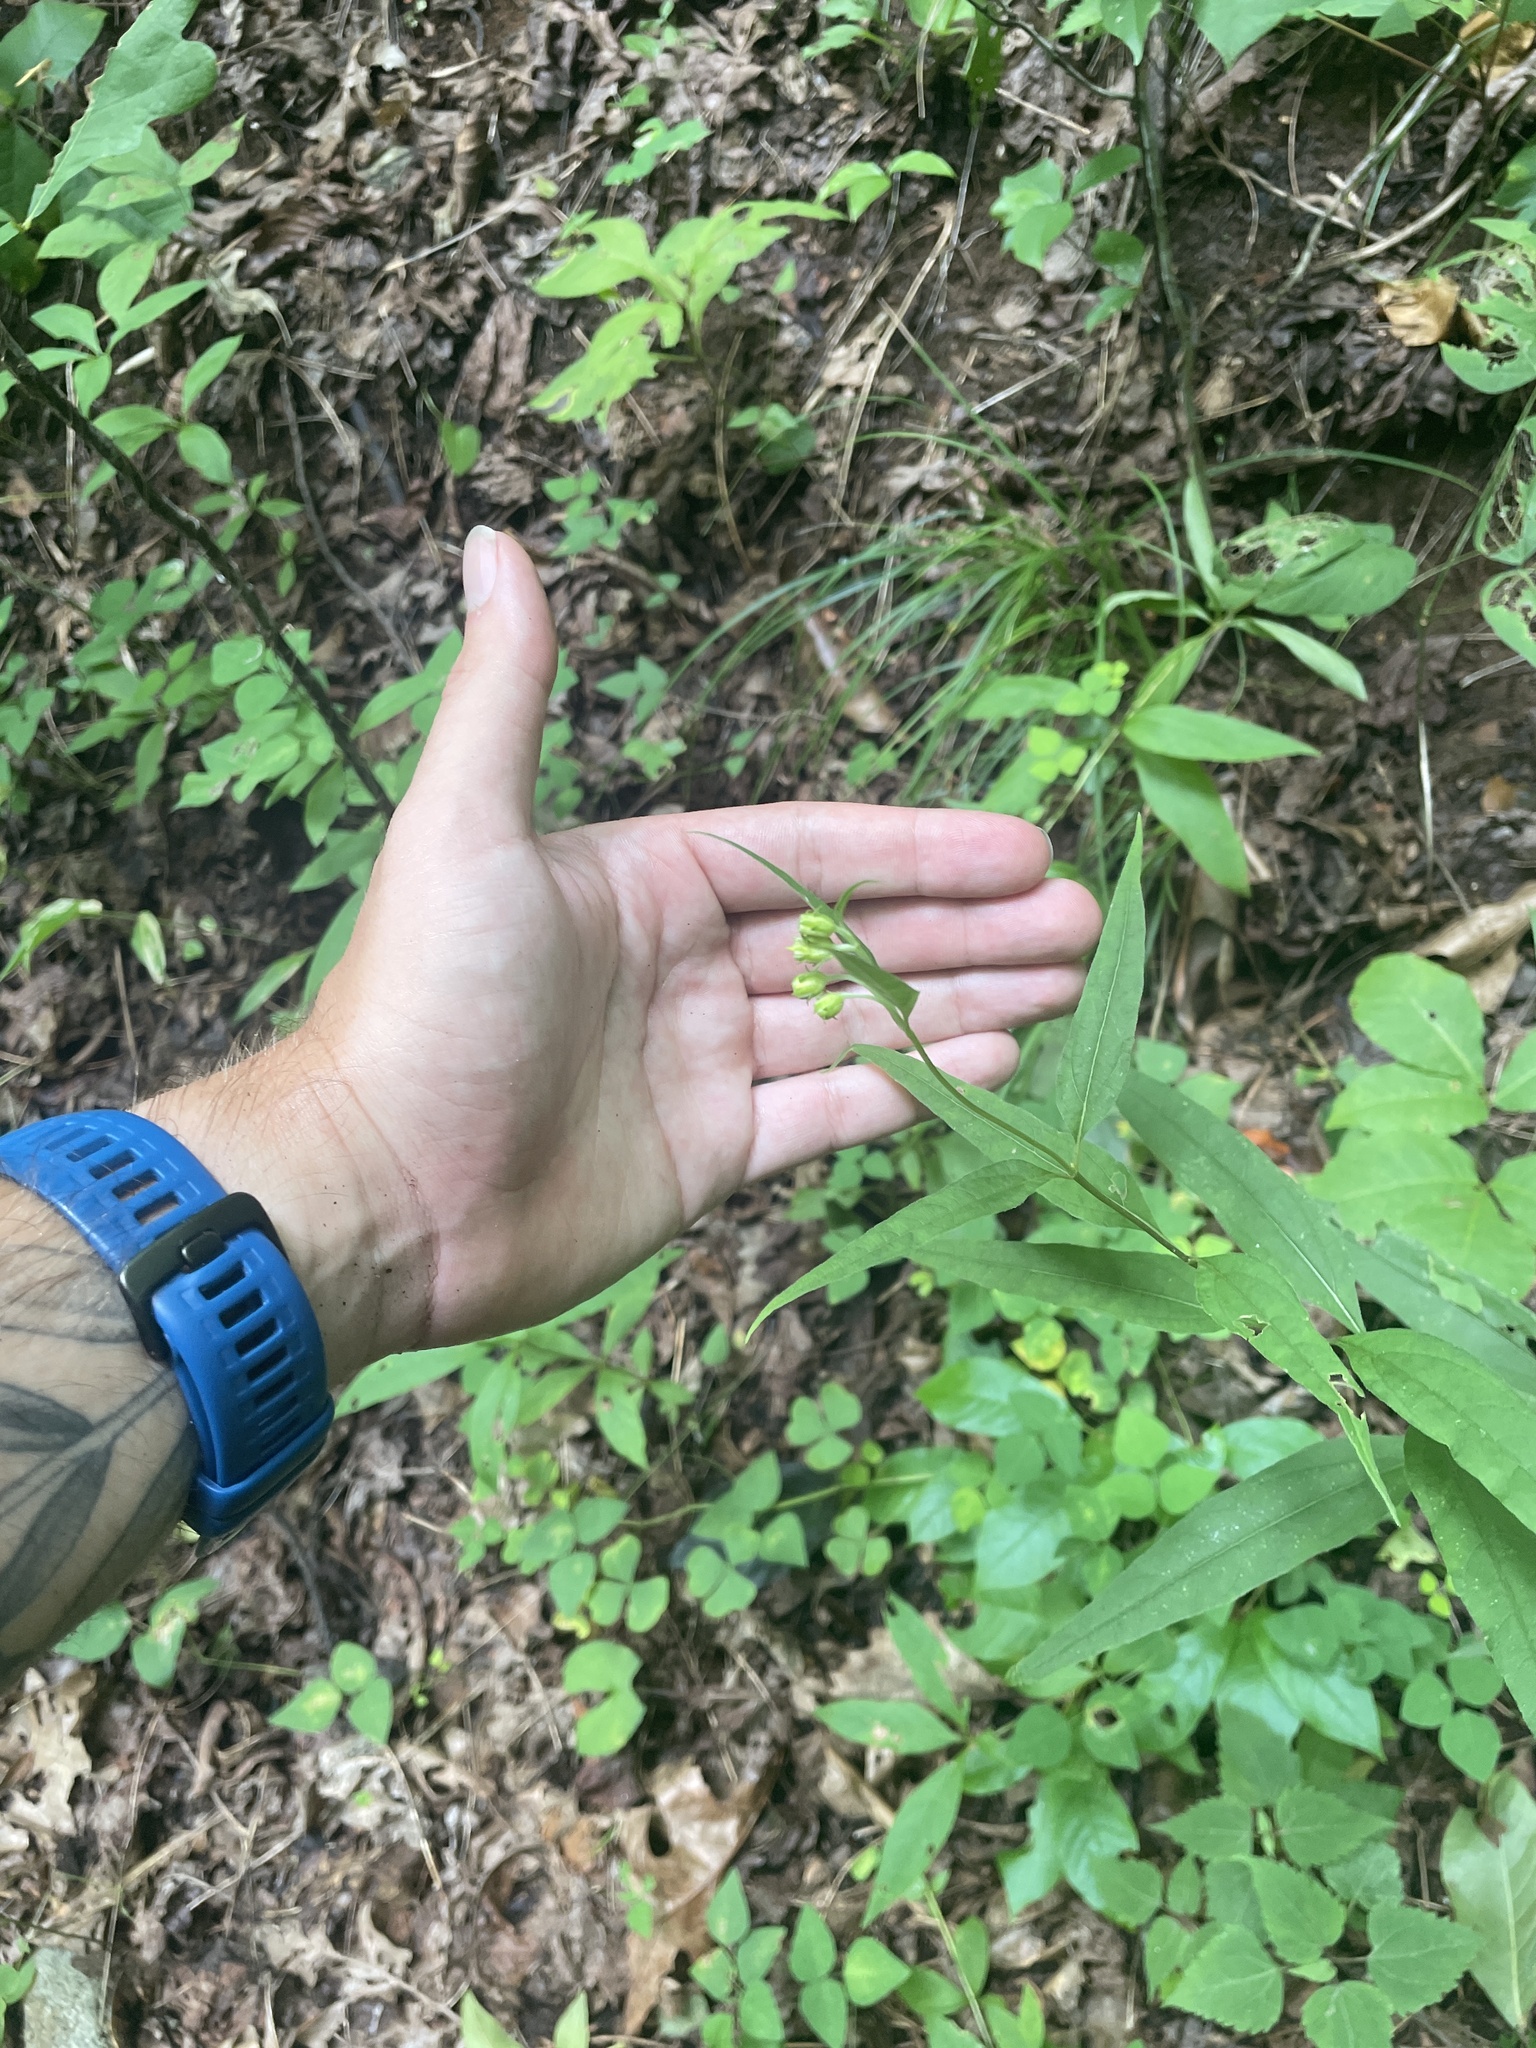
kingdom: Plantae
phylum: Tracheophyta
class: Magnoliopsida
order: Asterales
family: Asteraceae
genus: Helianthus
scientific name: Helianthus microcephalus
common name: Woodland sunflower
